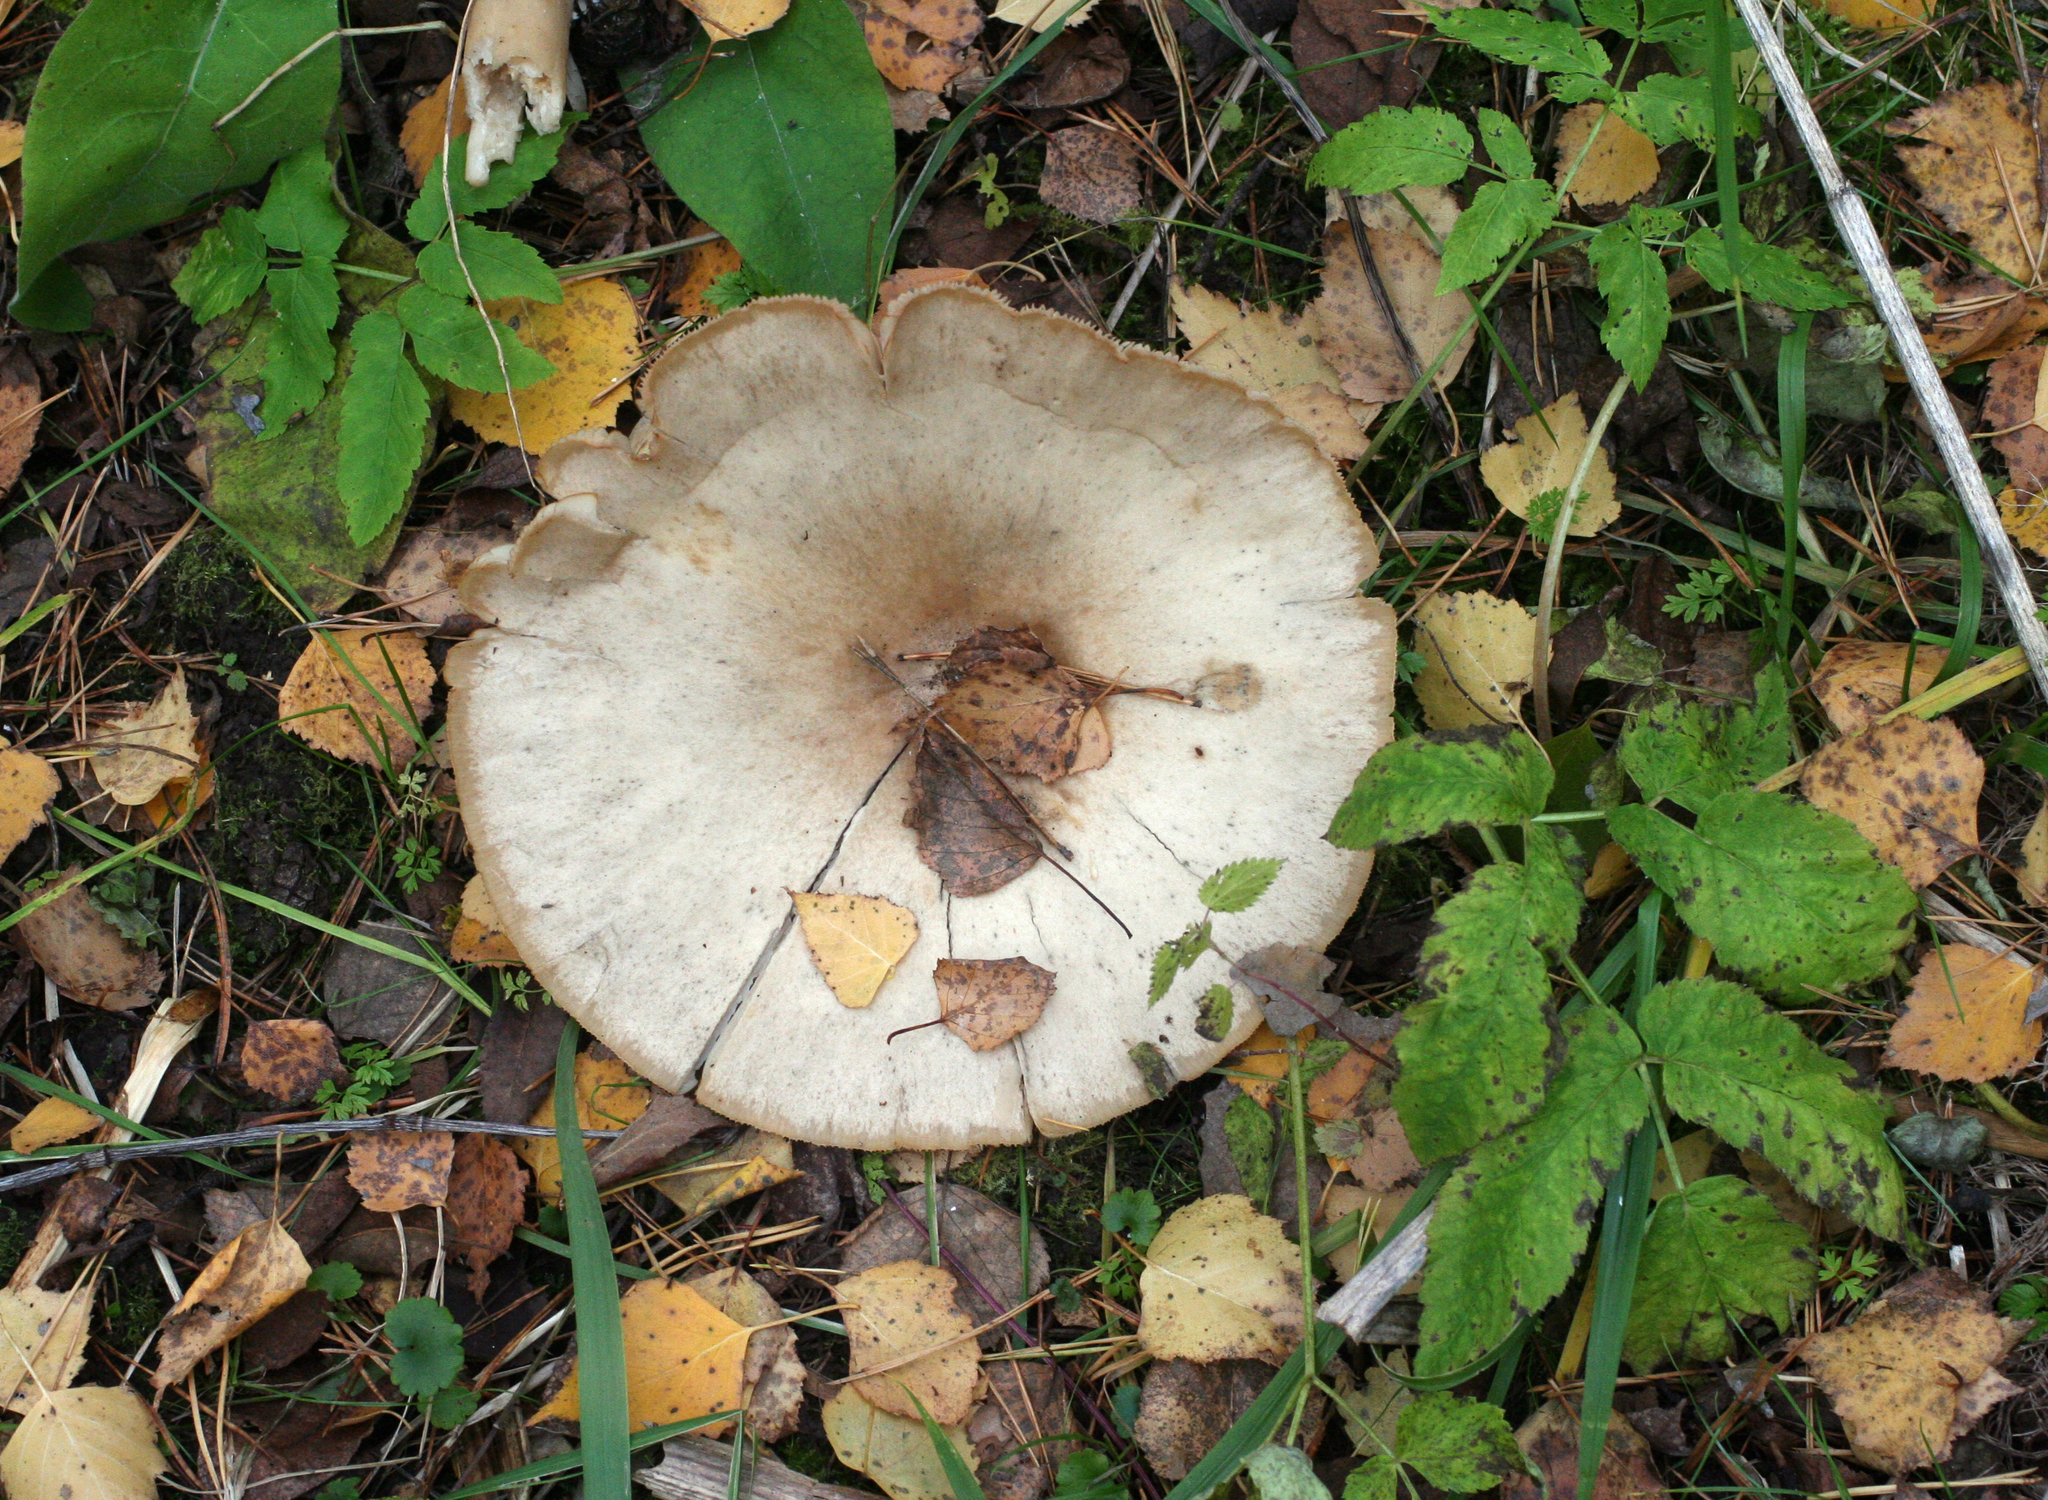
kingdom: Fungi
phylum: Basidiomycota
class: Agaricomycetes
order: Agaricales
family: Tricholomataceae
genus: Aspropaxillus
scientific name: Aspropaxillus giganteus
